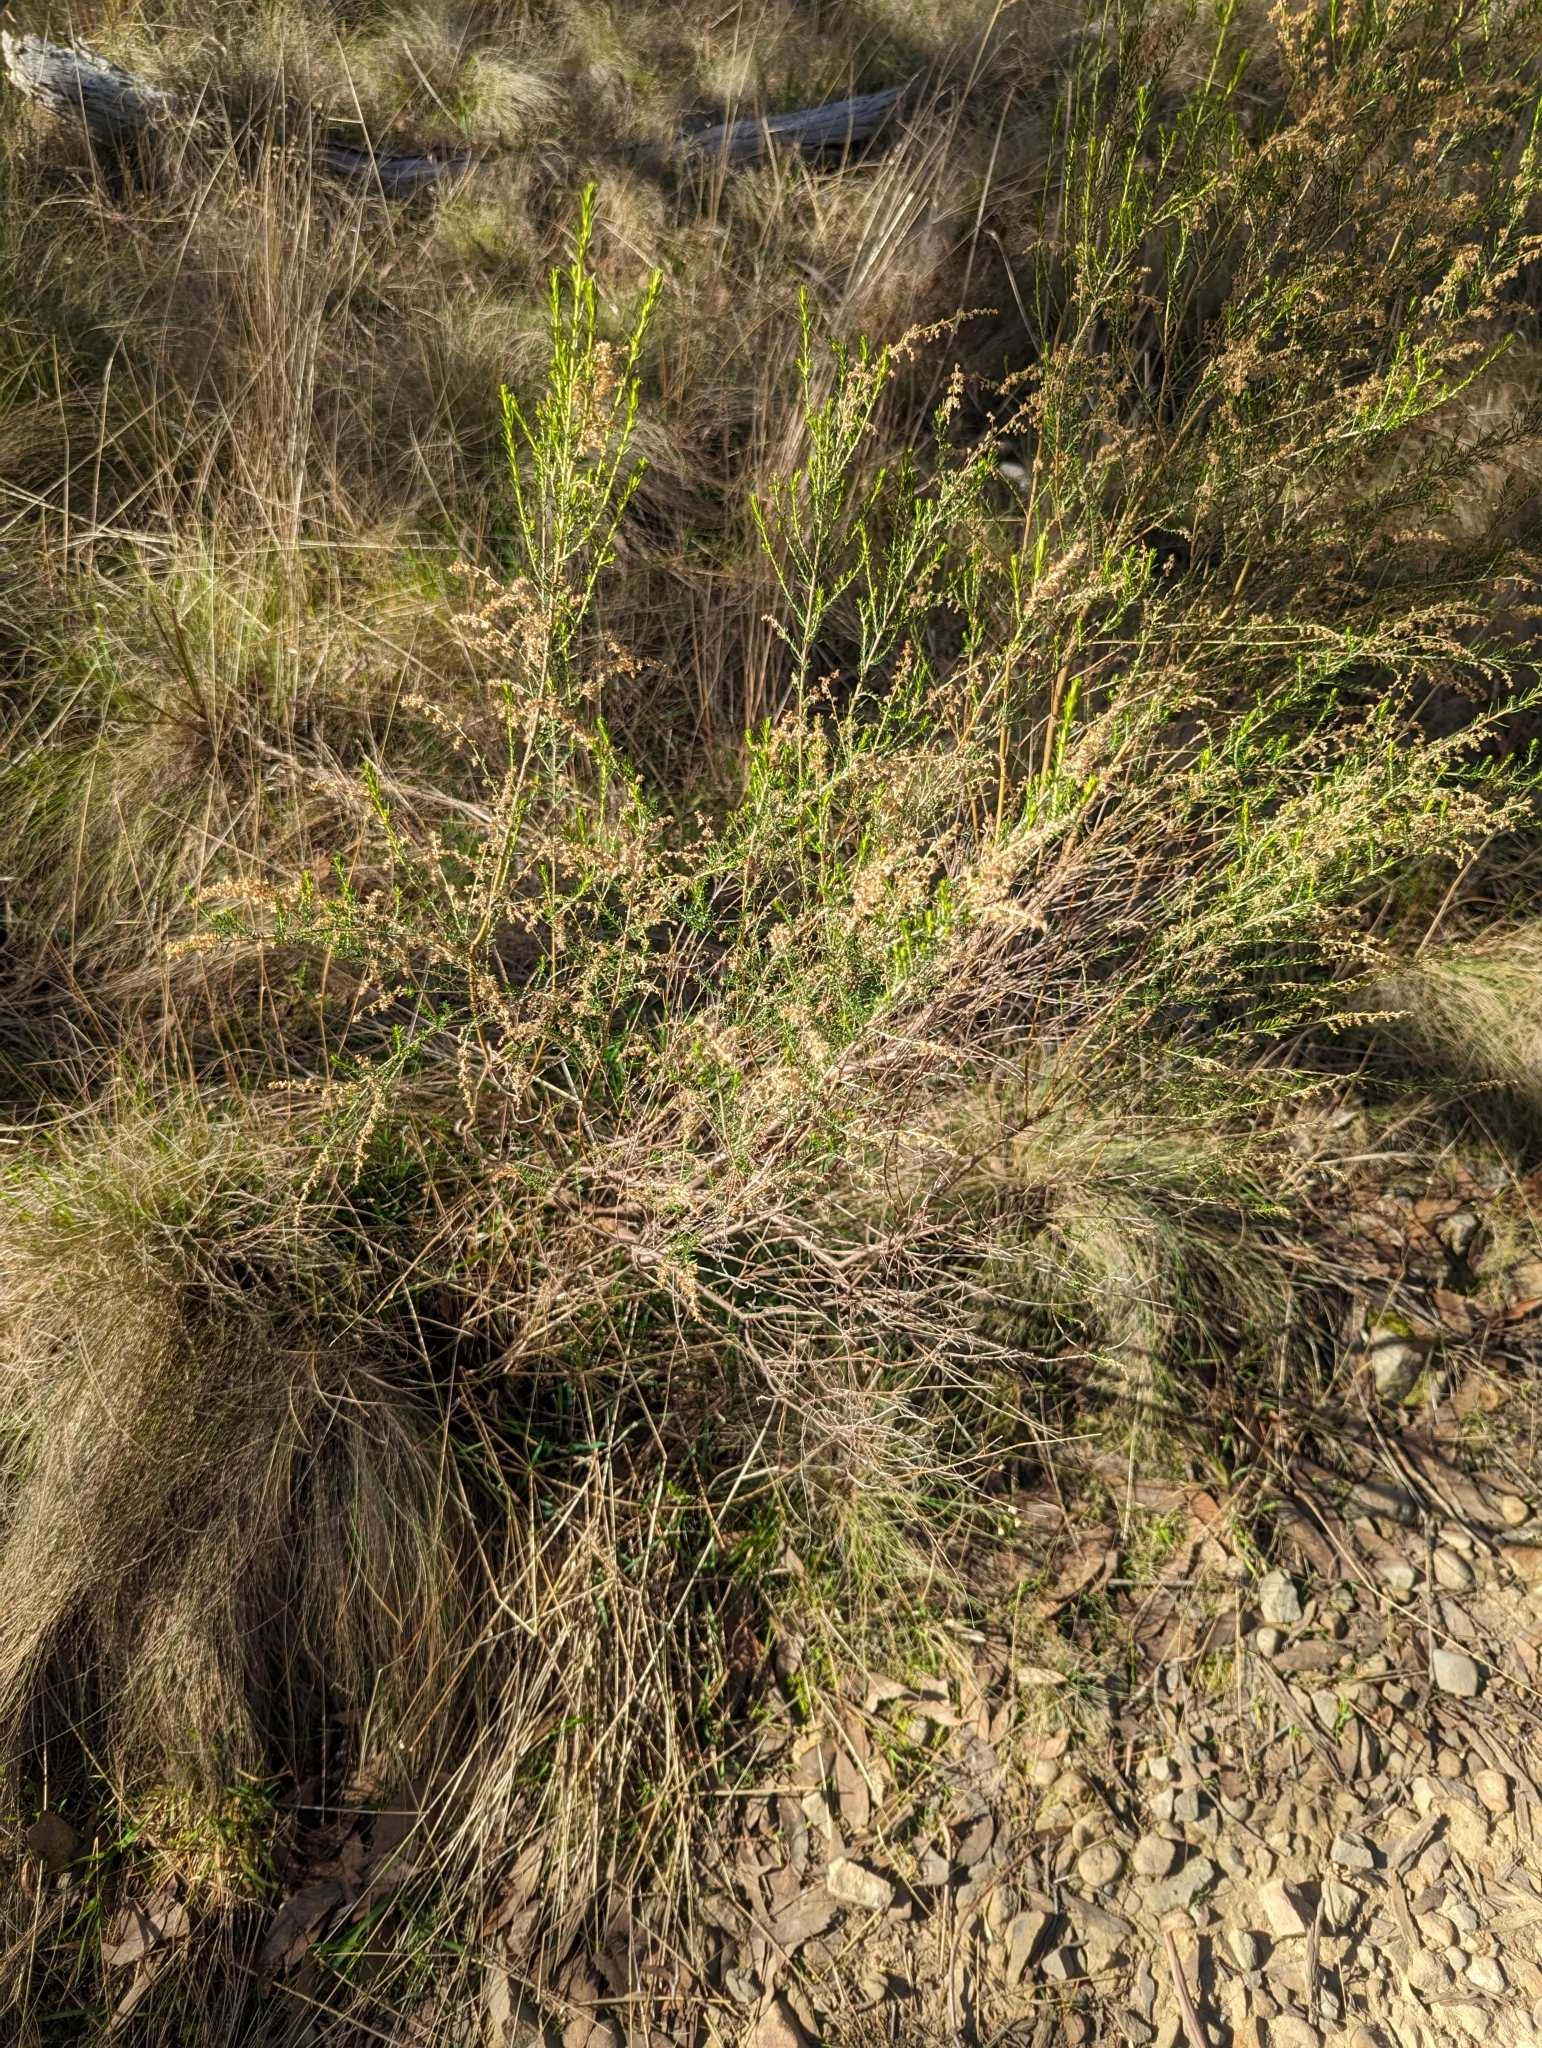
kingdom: Plantae
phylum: Tracheophyta
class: Magnoliopsida
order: Asterales
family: Asteraceae
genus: Cassinia
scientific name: Cassinia sifton
